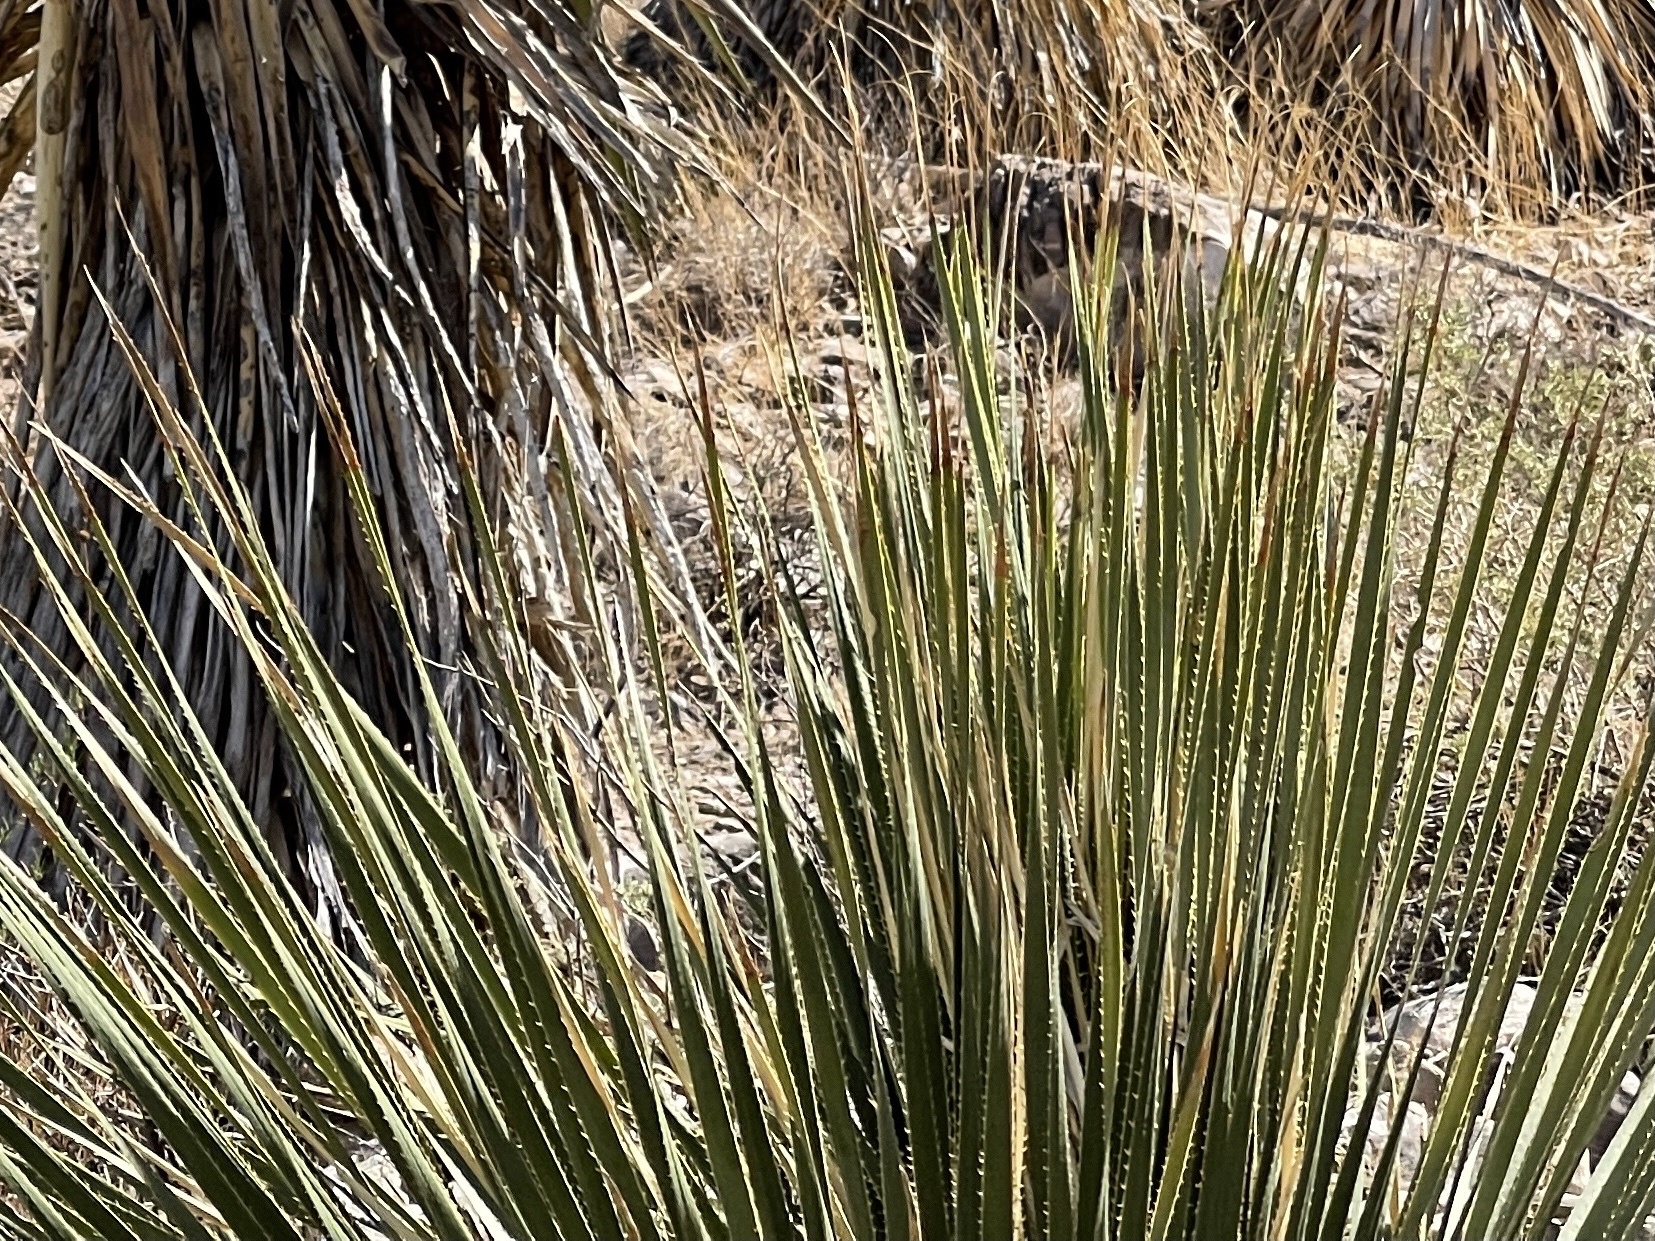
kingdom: Plantae
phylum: Tracheophyta
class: Liliopsida
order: Asparagales
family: Asparagaceae
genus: Dasylirion
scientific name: Dasylirion wheeleri
